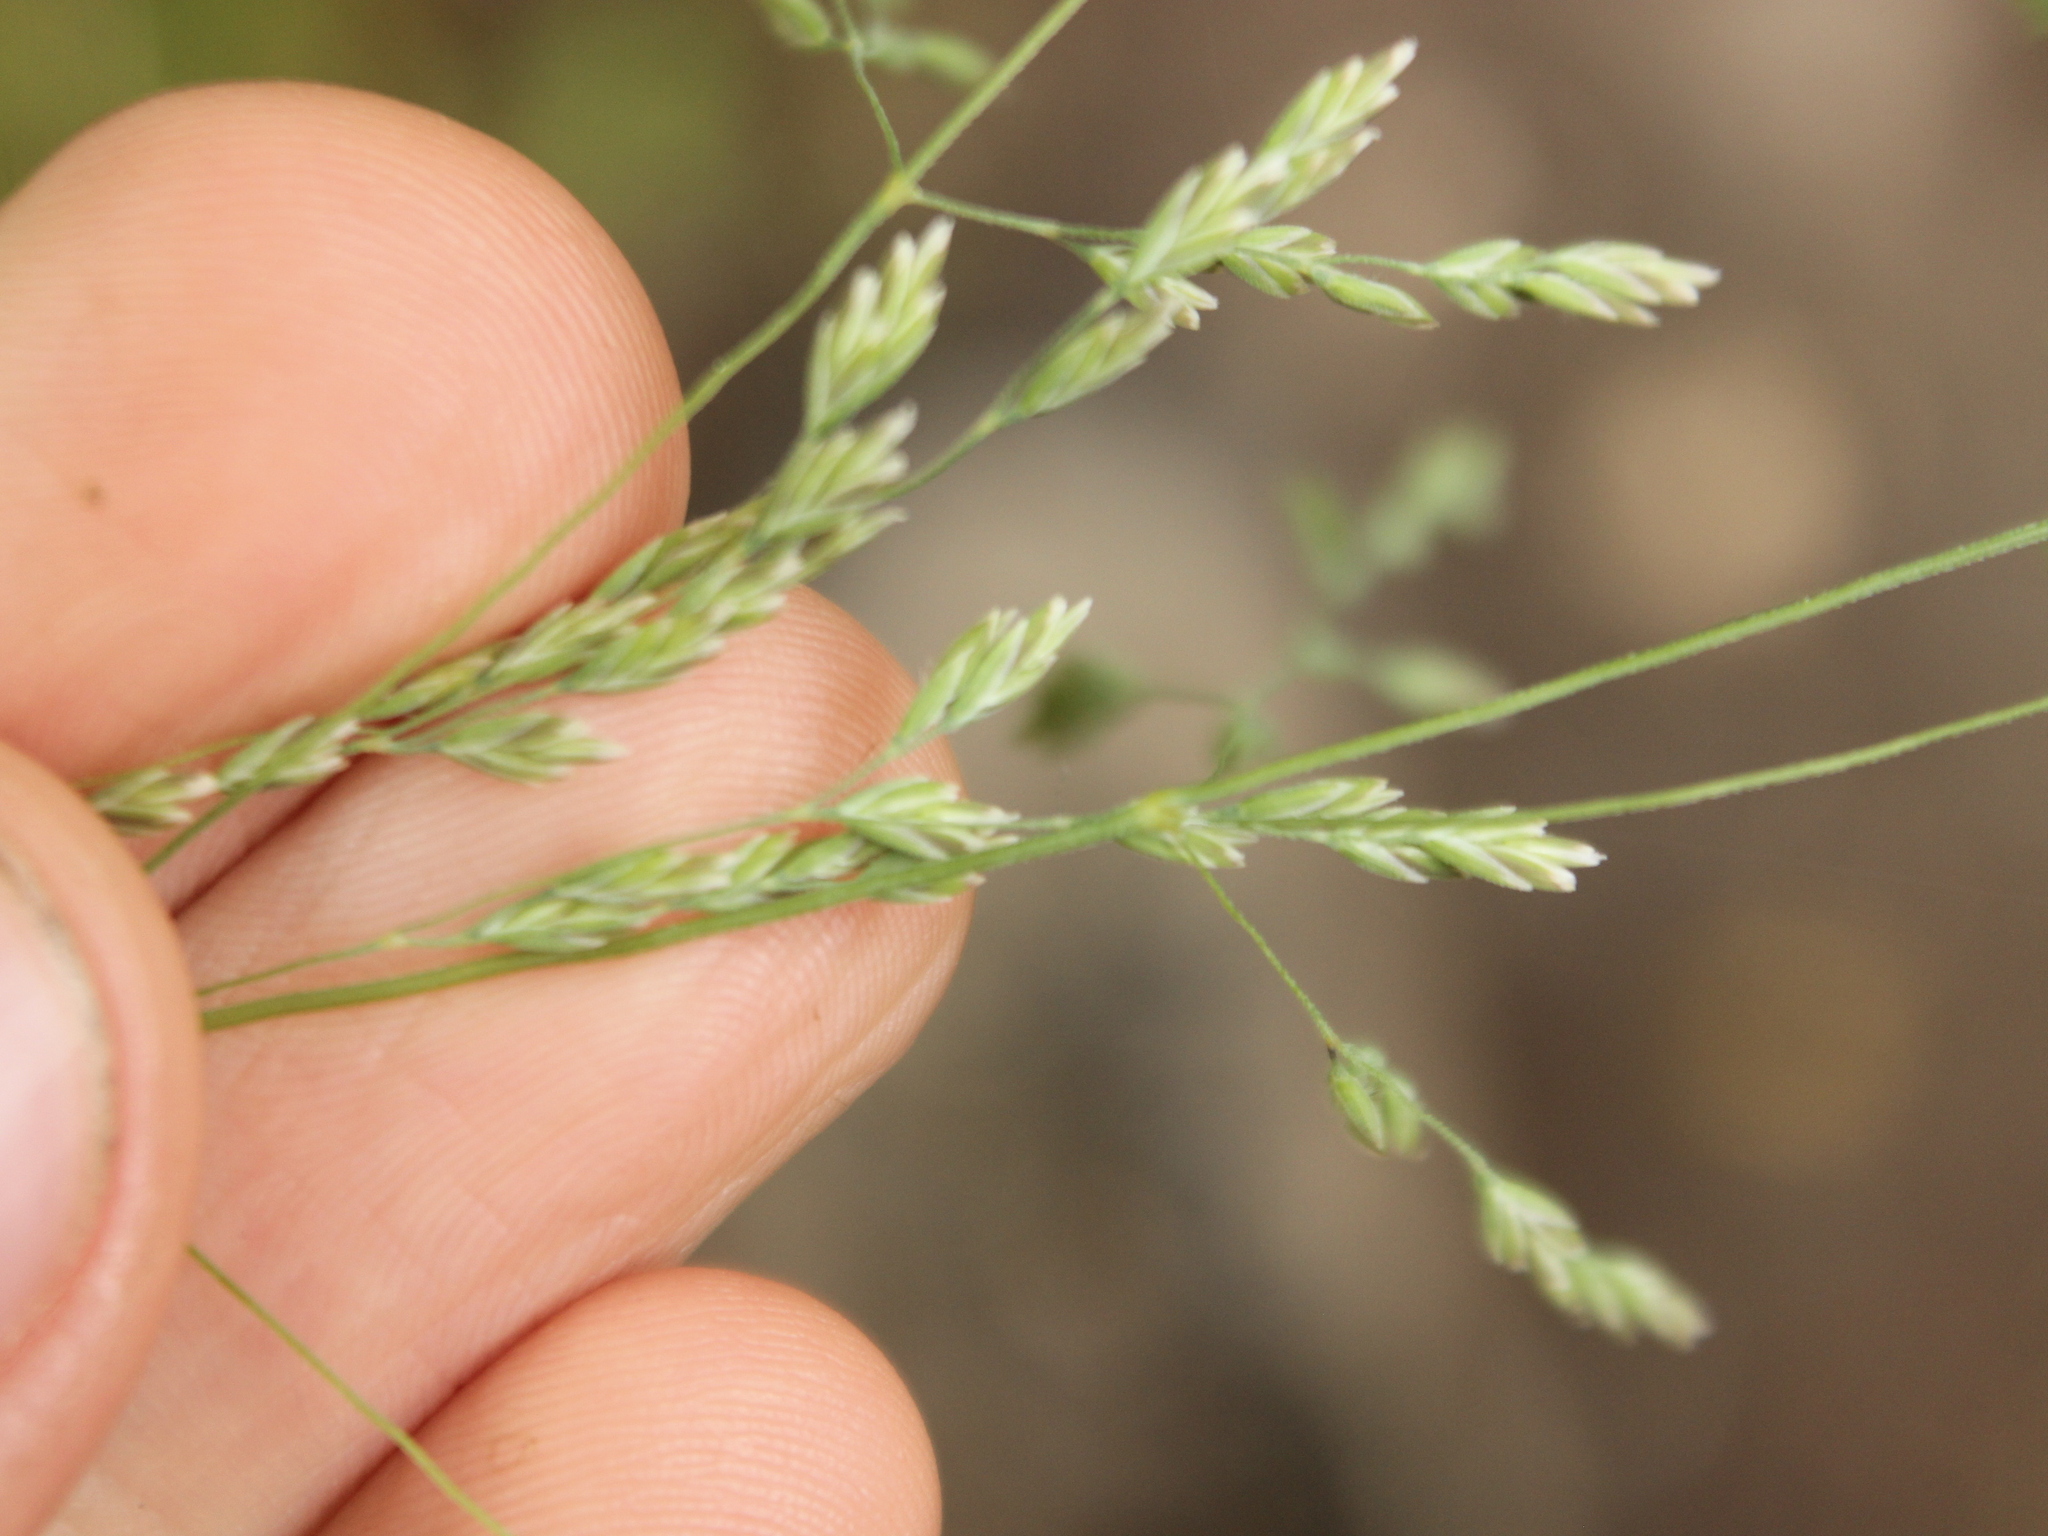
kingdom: Plantae
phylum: Tracheophyta
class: Liliopsida
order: Poales
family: Poaceae
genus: Poa
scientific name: Poa anceps
